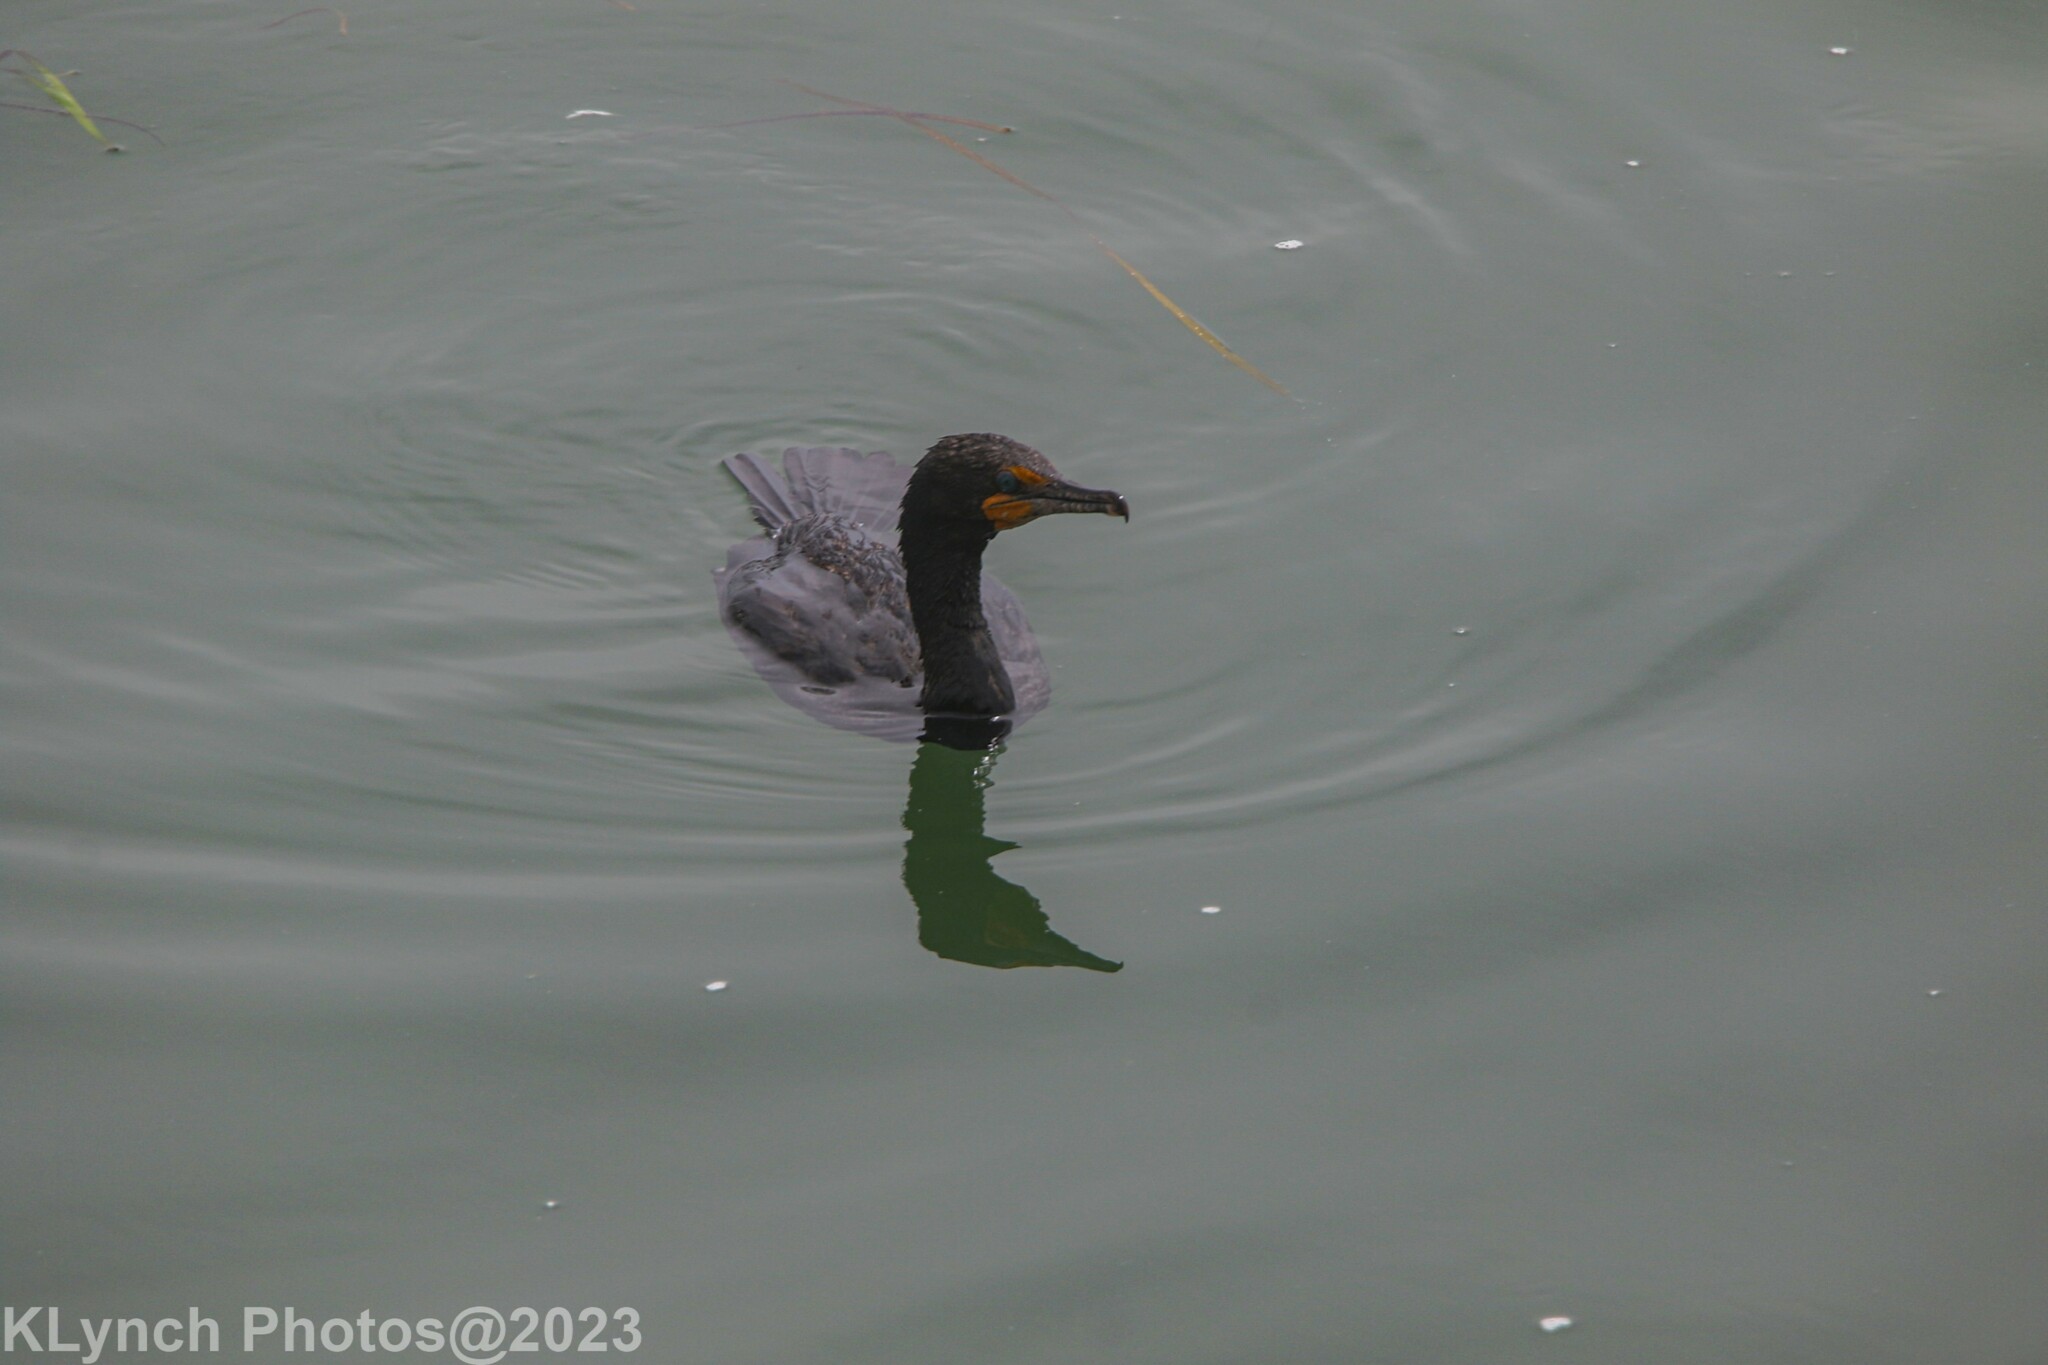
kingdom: Animalia
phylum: Chordata
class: Aves
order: Suliformes
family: Phalacrocoracidae
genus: Phalacrocorax
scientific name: Phalacrocorax auritus
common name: Double-crested cormorant
